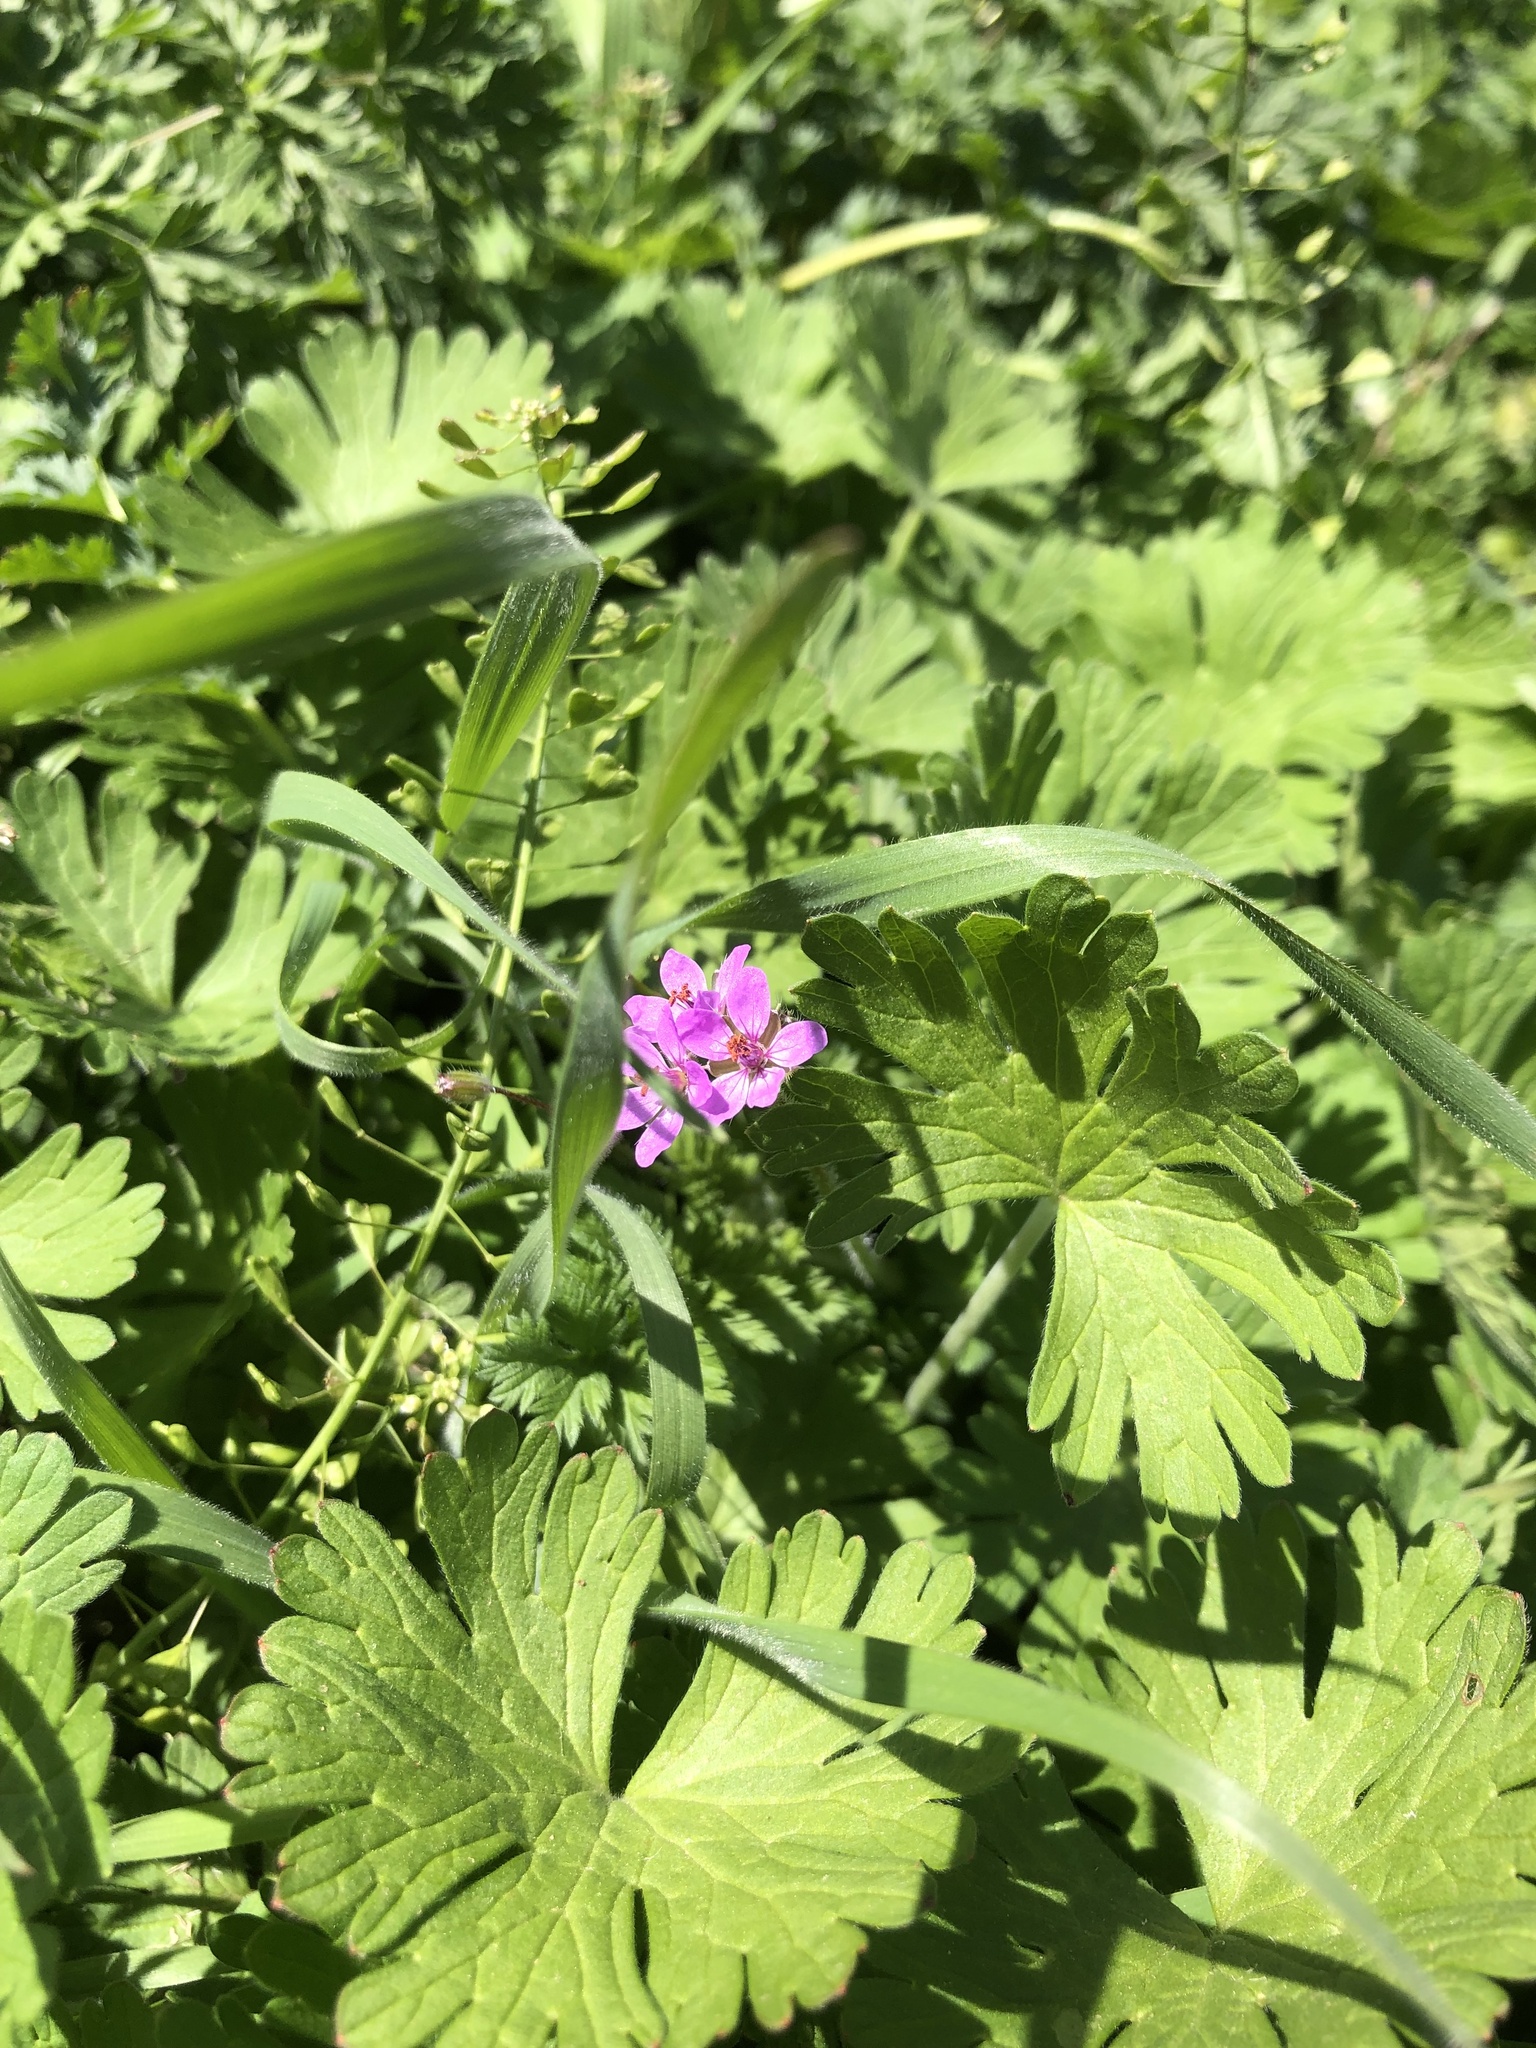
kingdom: Plantae
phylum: Tracheophyta
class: Magnoliopsida
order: Geraniales
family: Geraniaceae
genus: Erodium
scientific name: Erodium cicutarium
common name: Common stork's-bill
